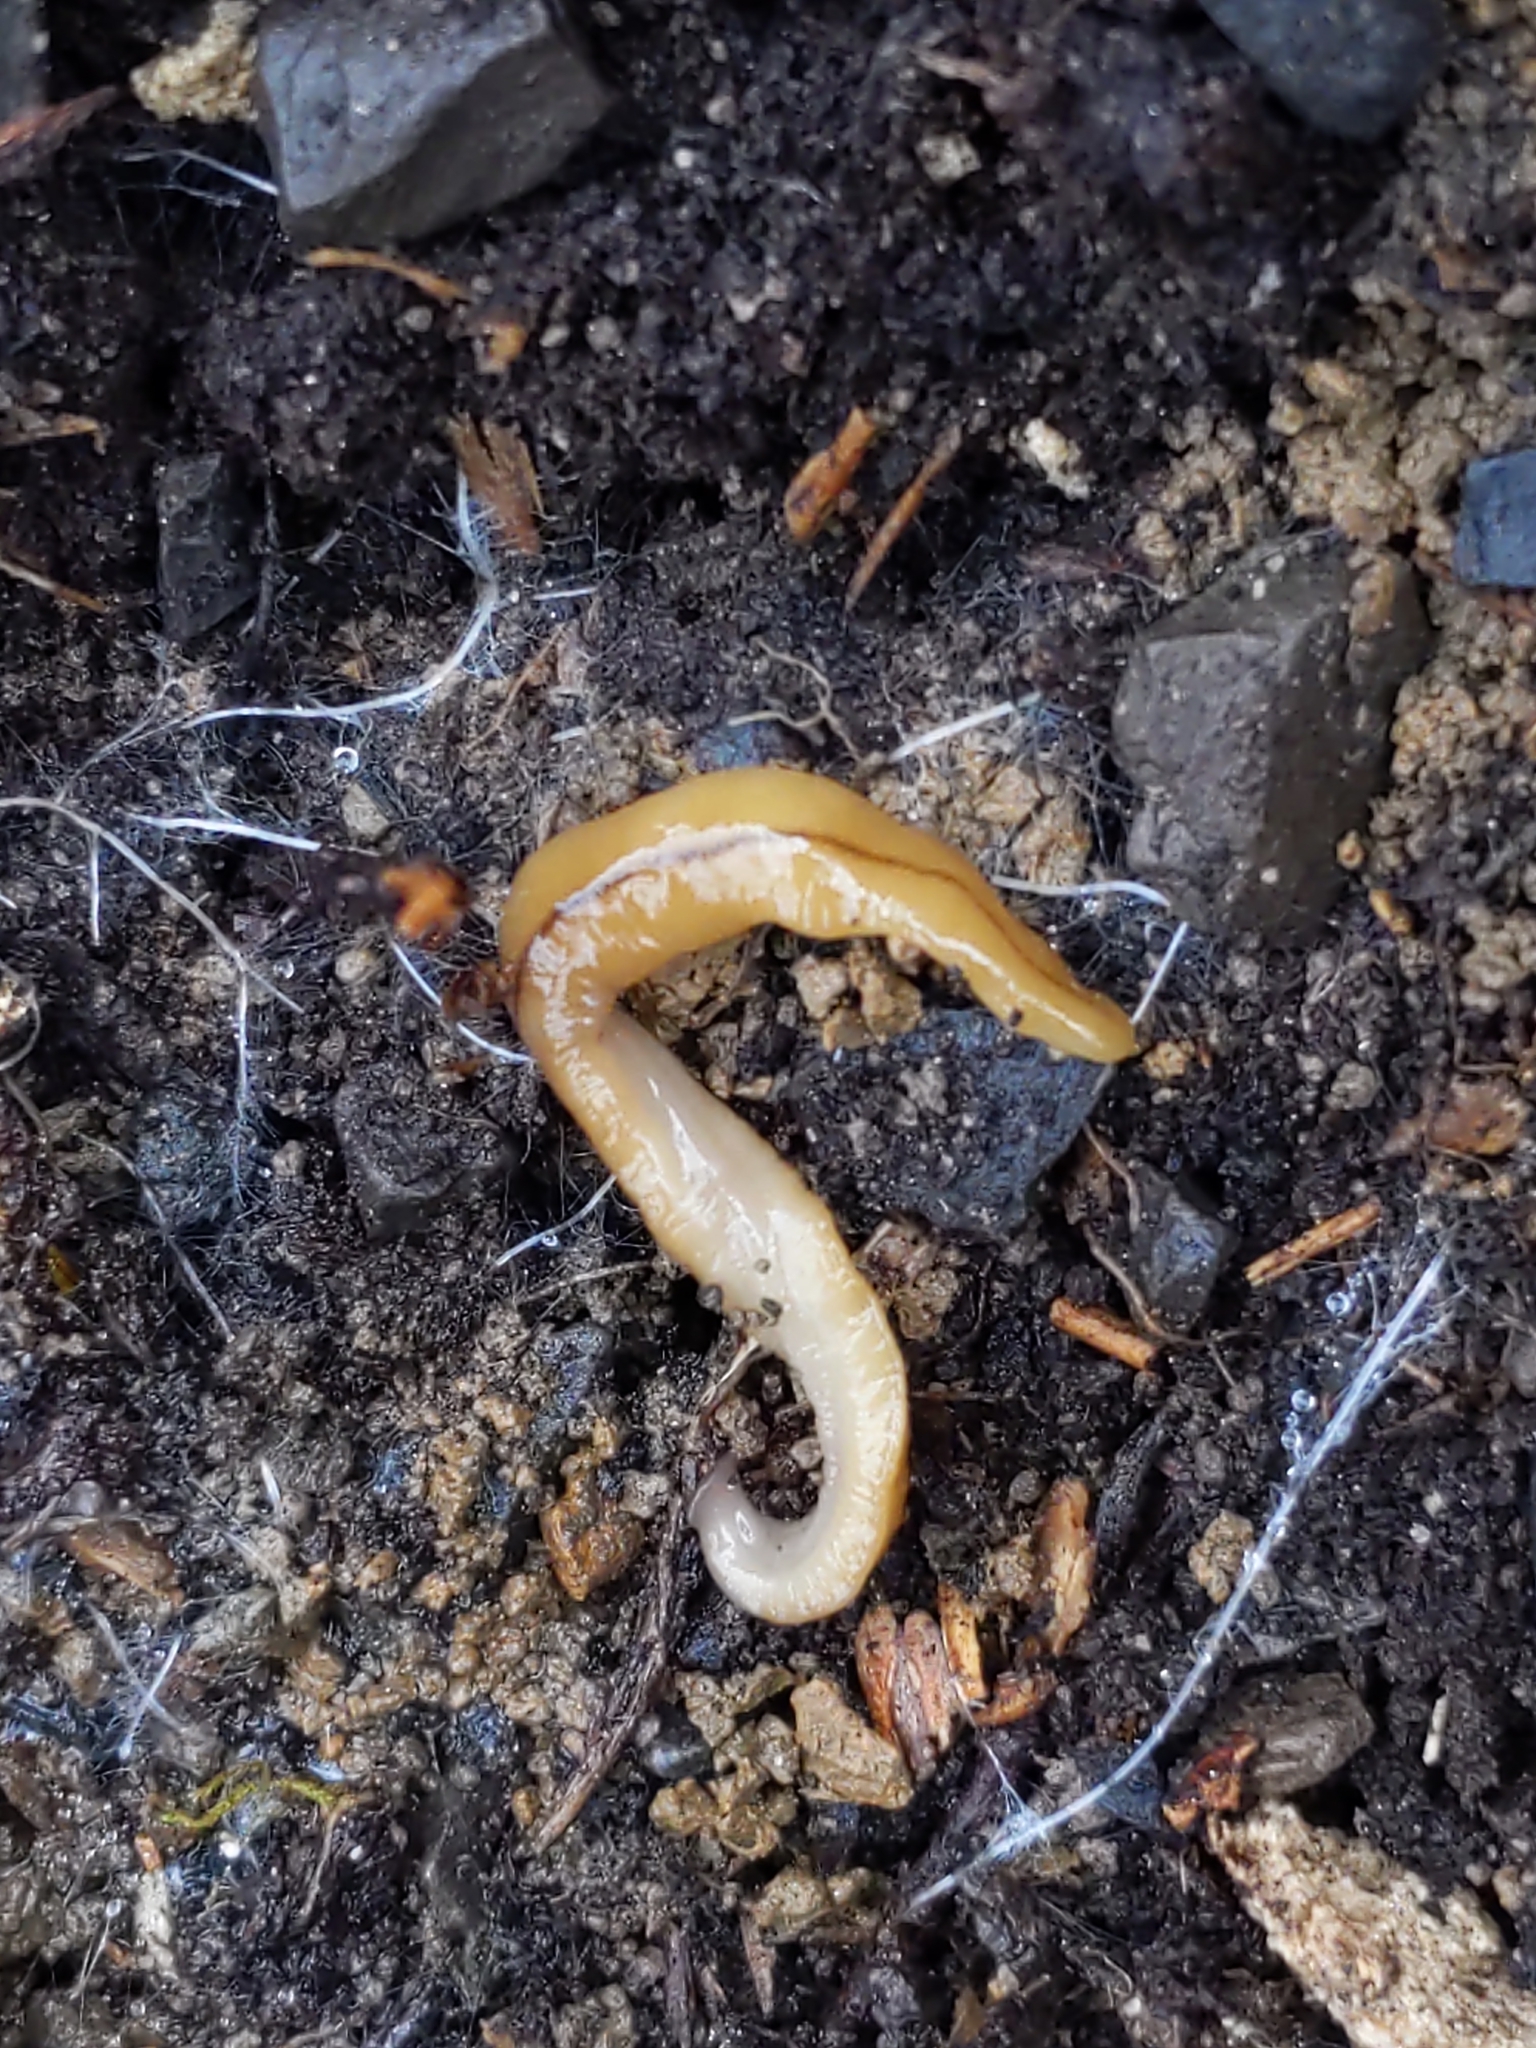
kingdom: Animalia
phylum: Platyhelminthes
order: Tricladida
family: Geoplanidae
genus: Bipalium
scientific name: Bipalium adventitium
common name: Land planarian
